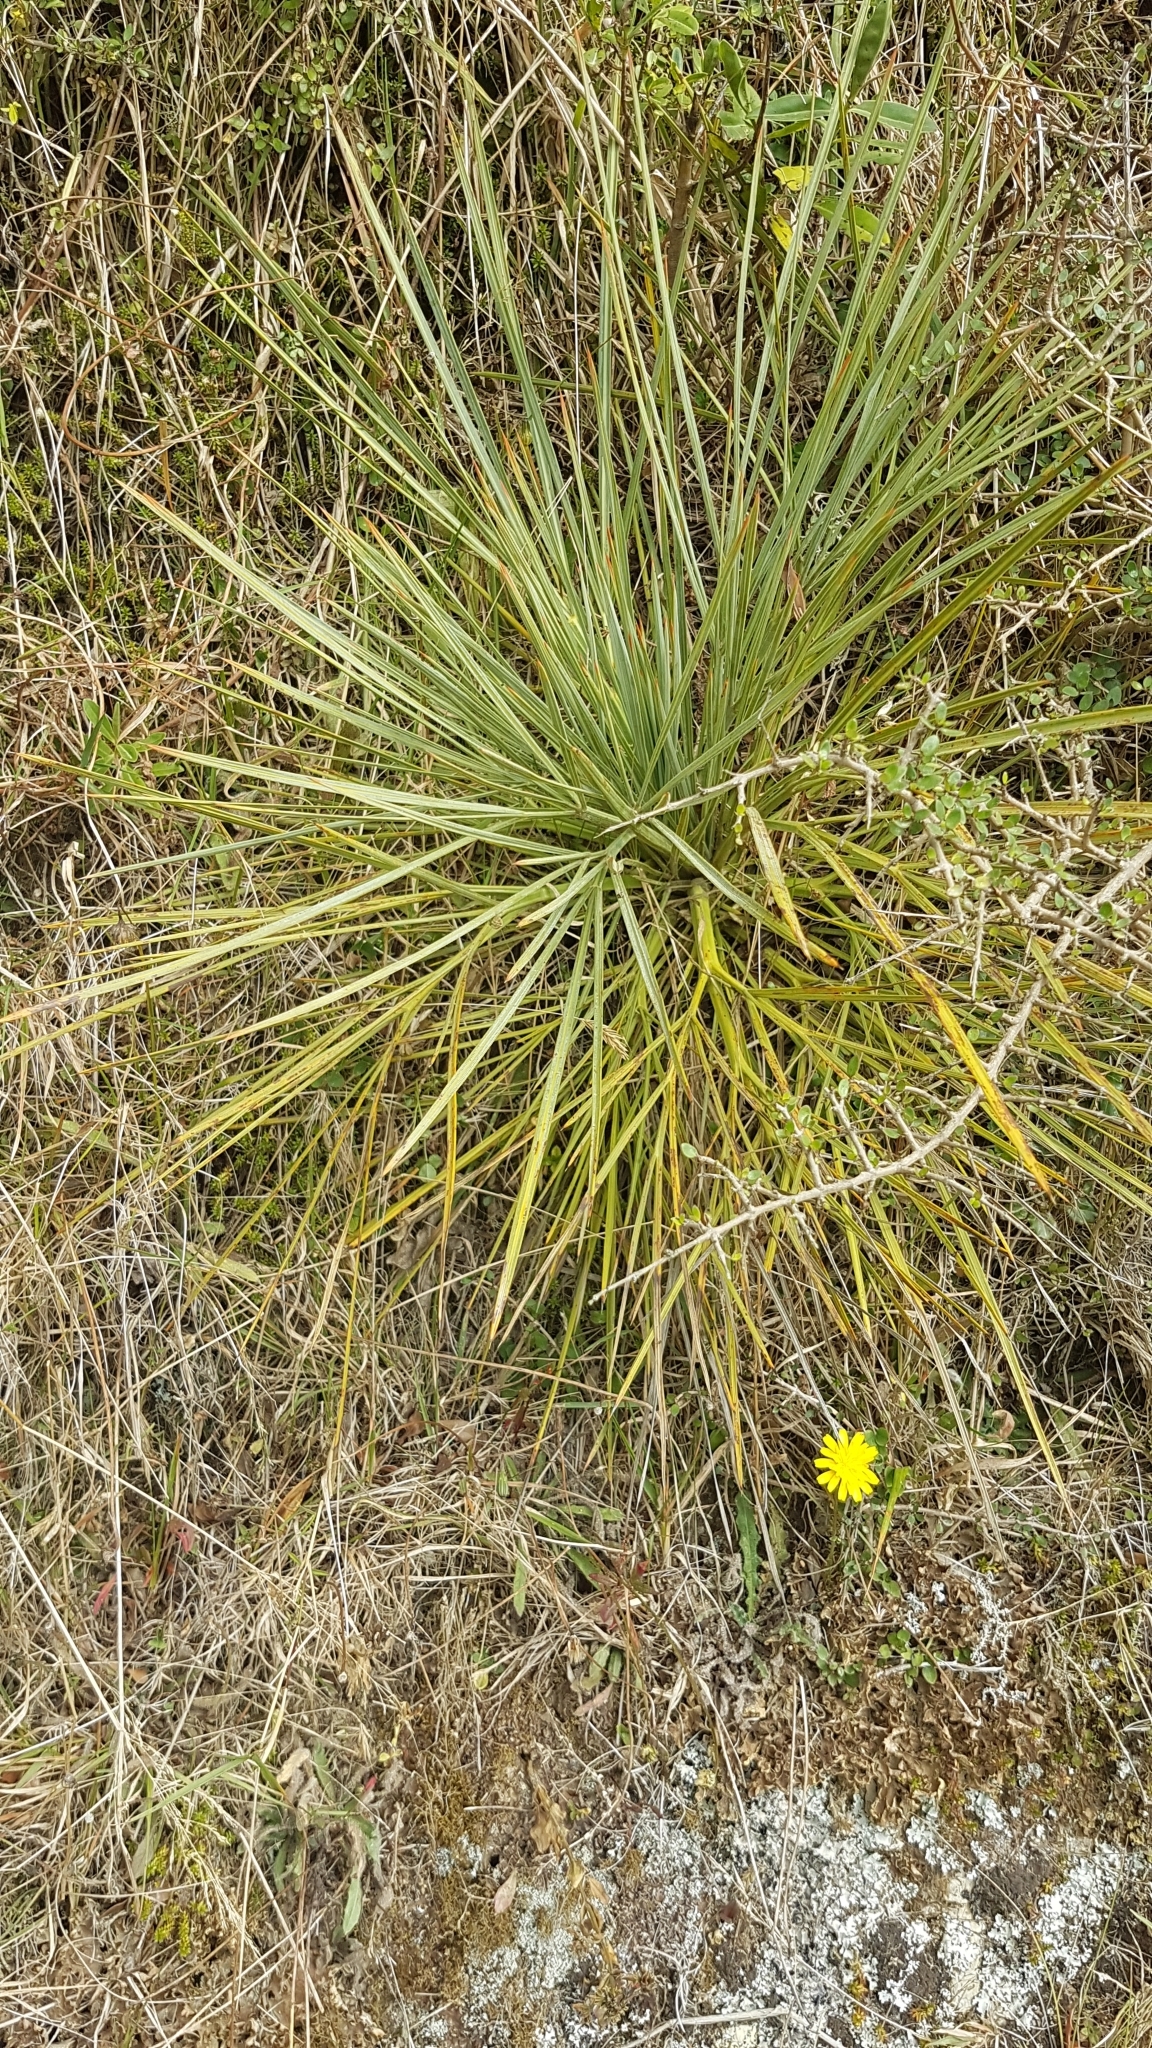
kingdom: Plantae
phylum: Tracheophyta
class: Magnoliopsida
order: Apiales
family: Apiaceae
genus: Aciphylla
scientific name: Aciphylla squarrosa
